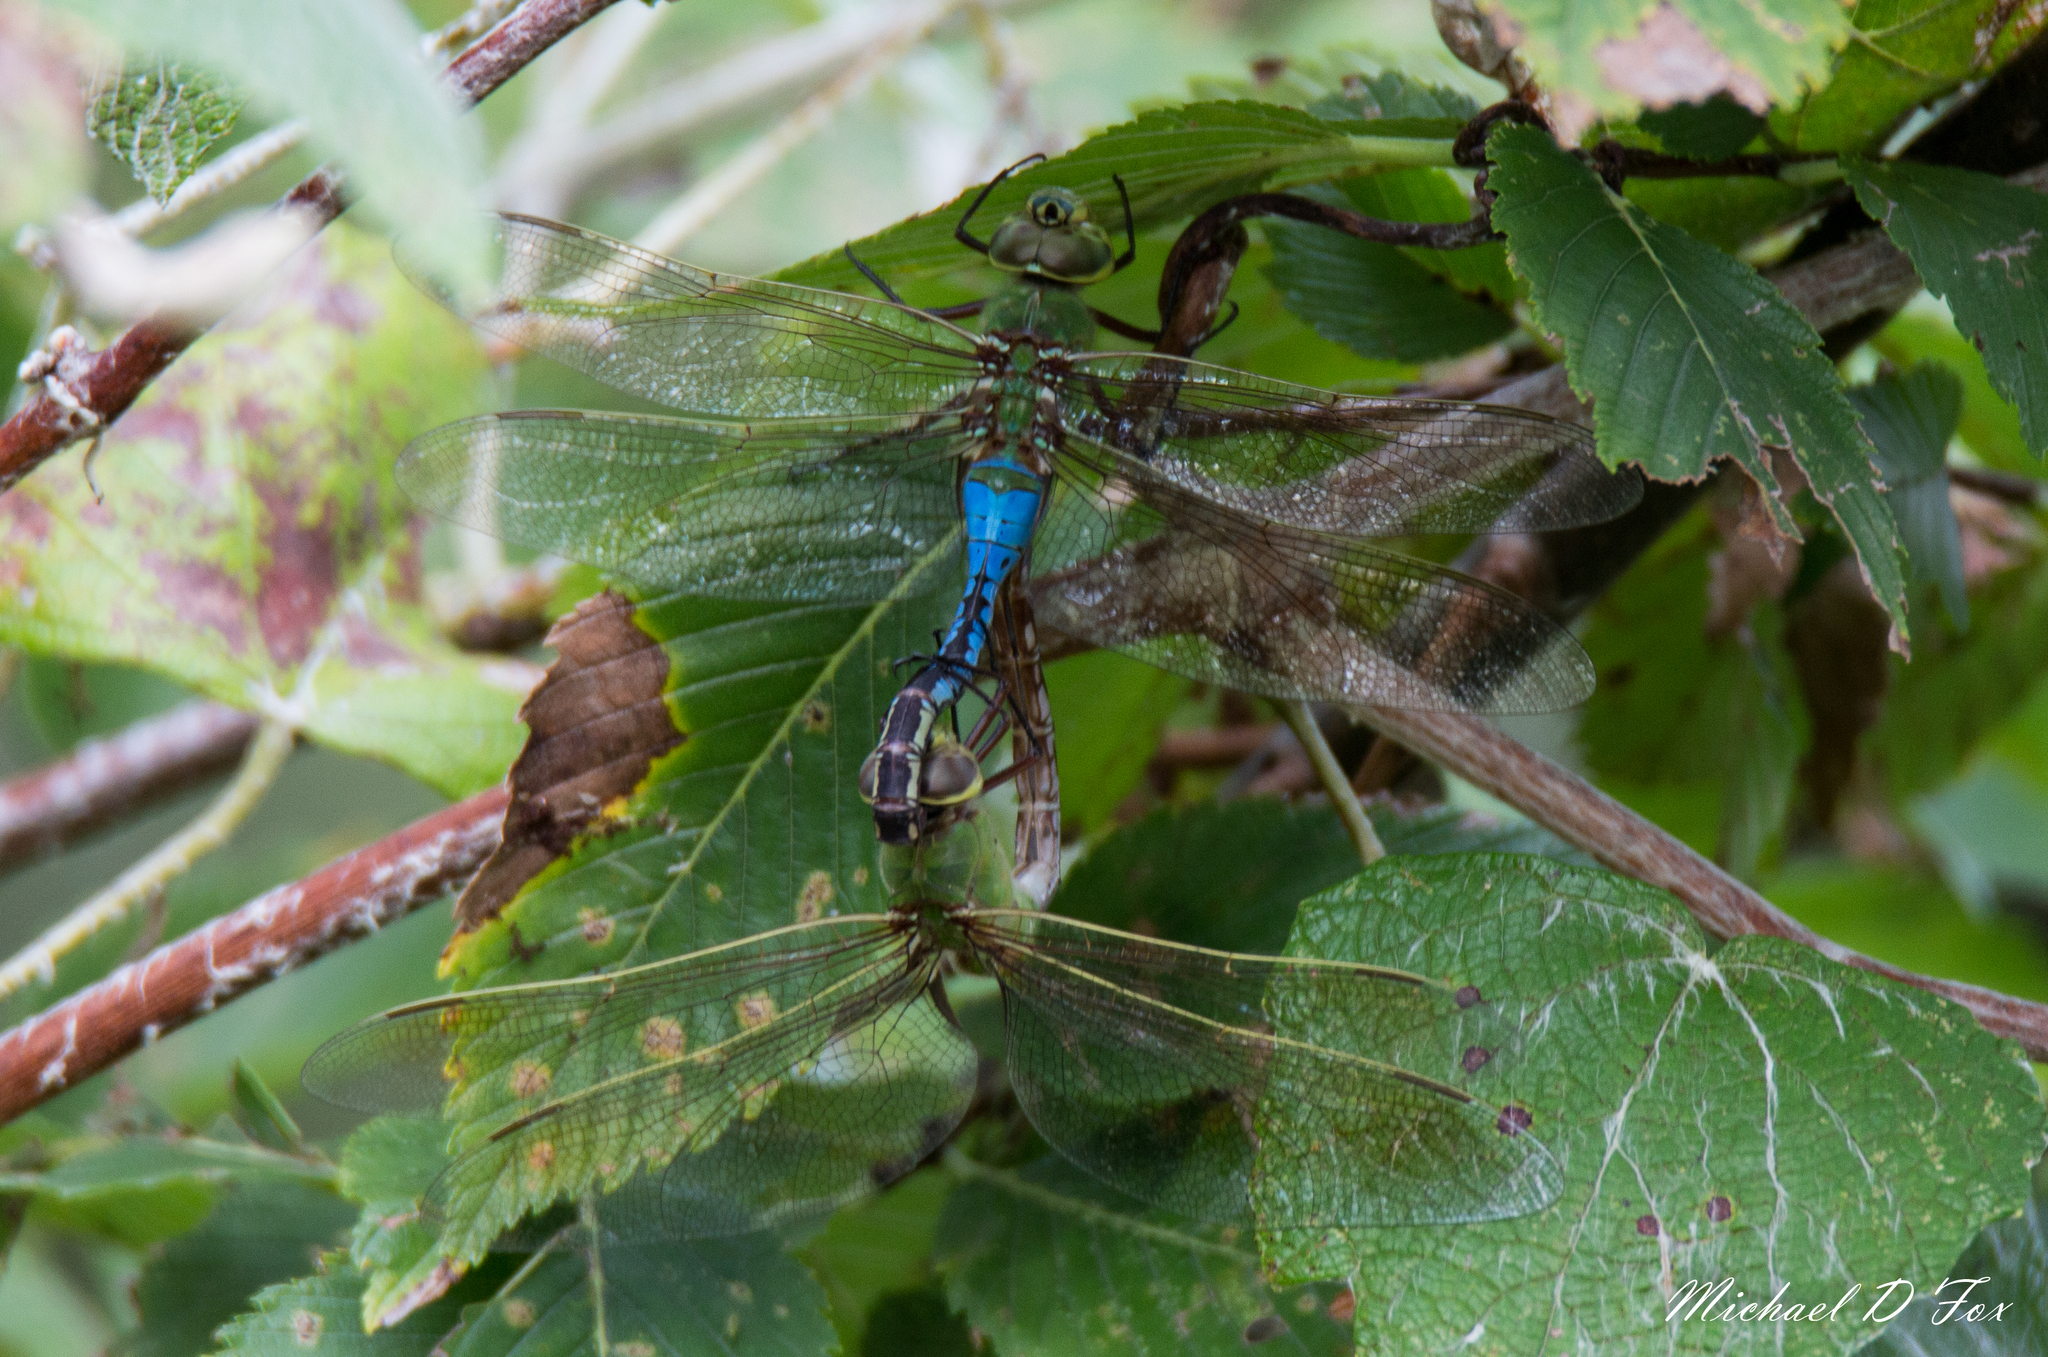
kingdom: Animalia
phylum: Arthropoda
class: Insecta
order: Odonata
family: Aeshnidae
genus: Anax
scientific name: Anax junius
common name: Common green darner
